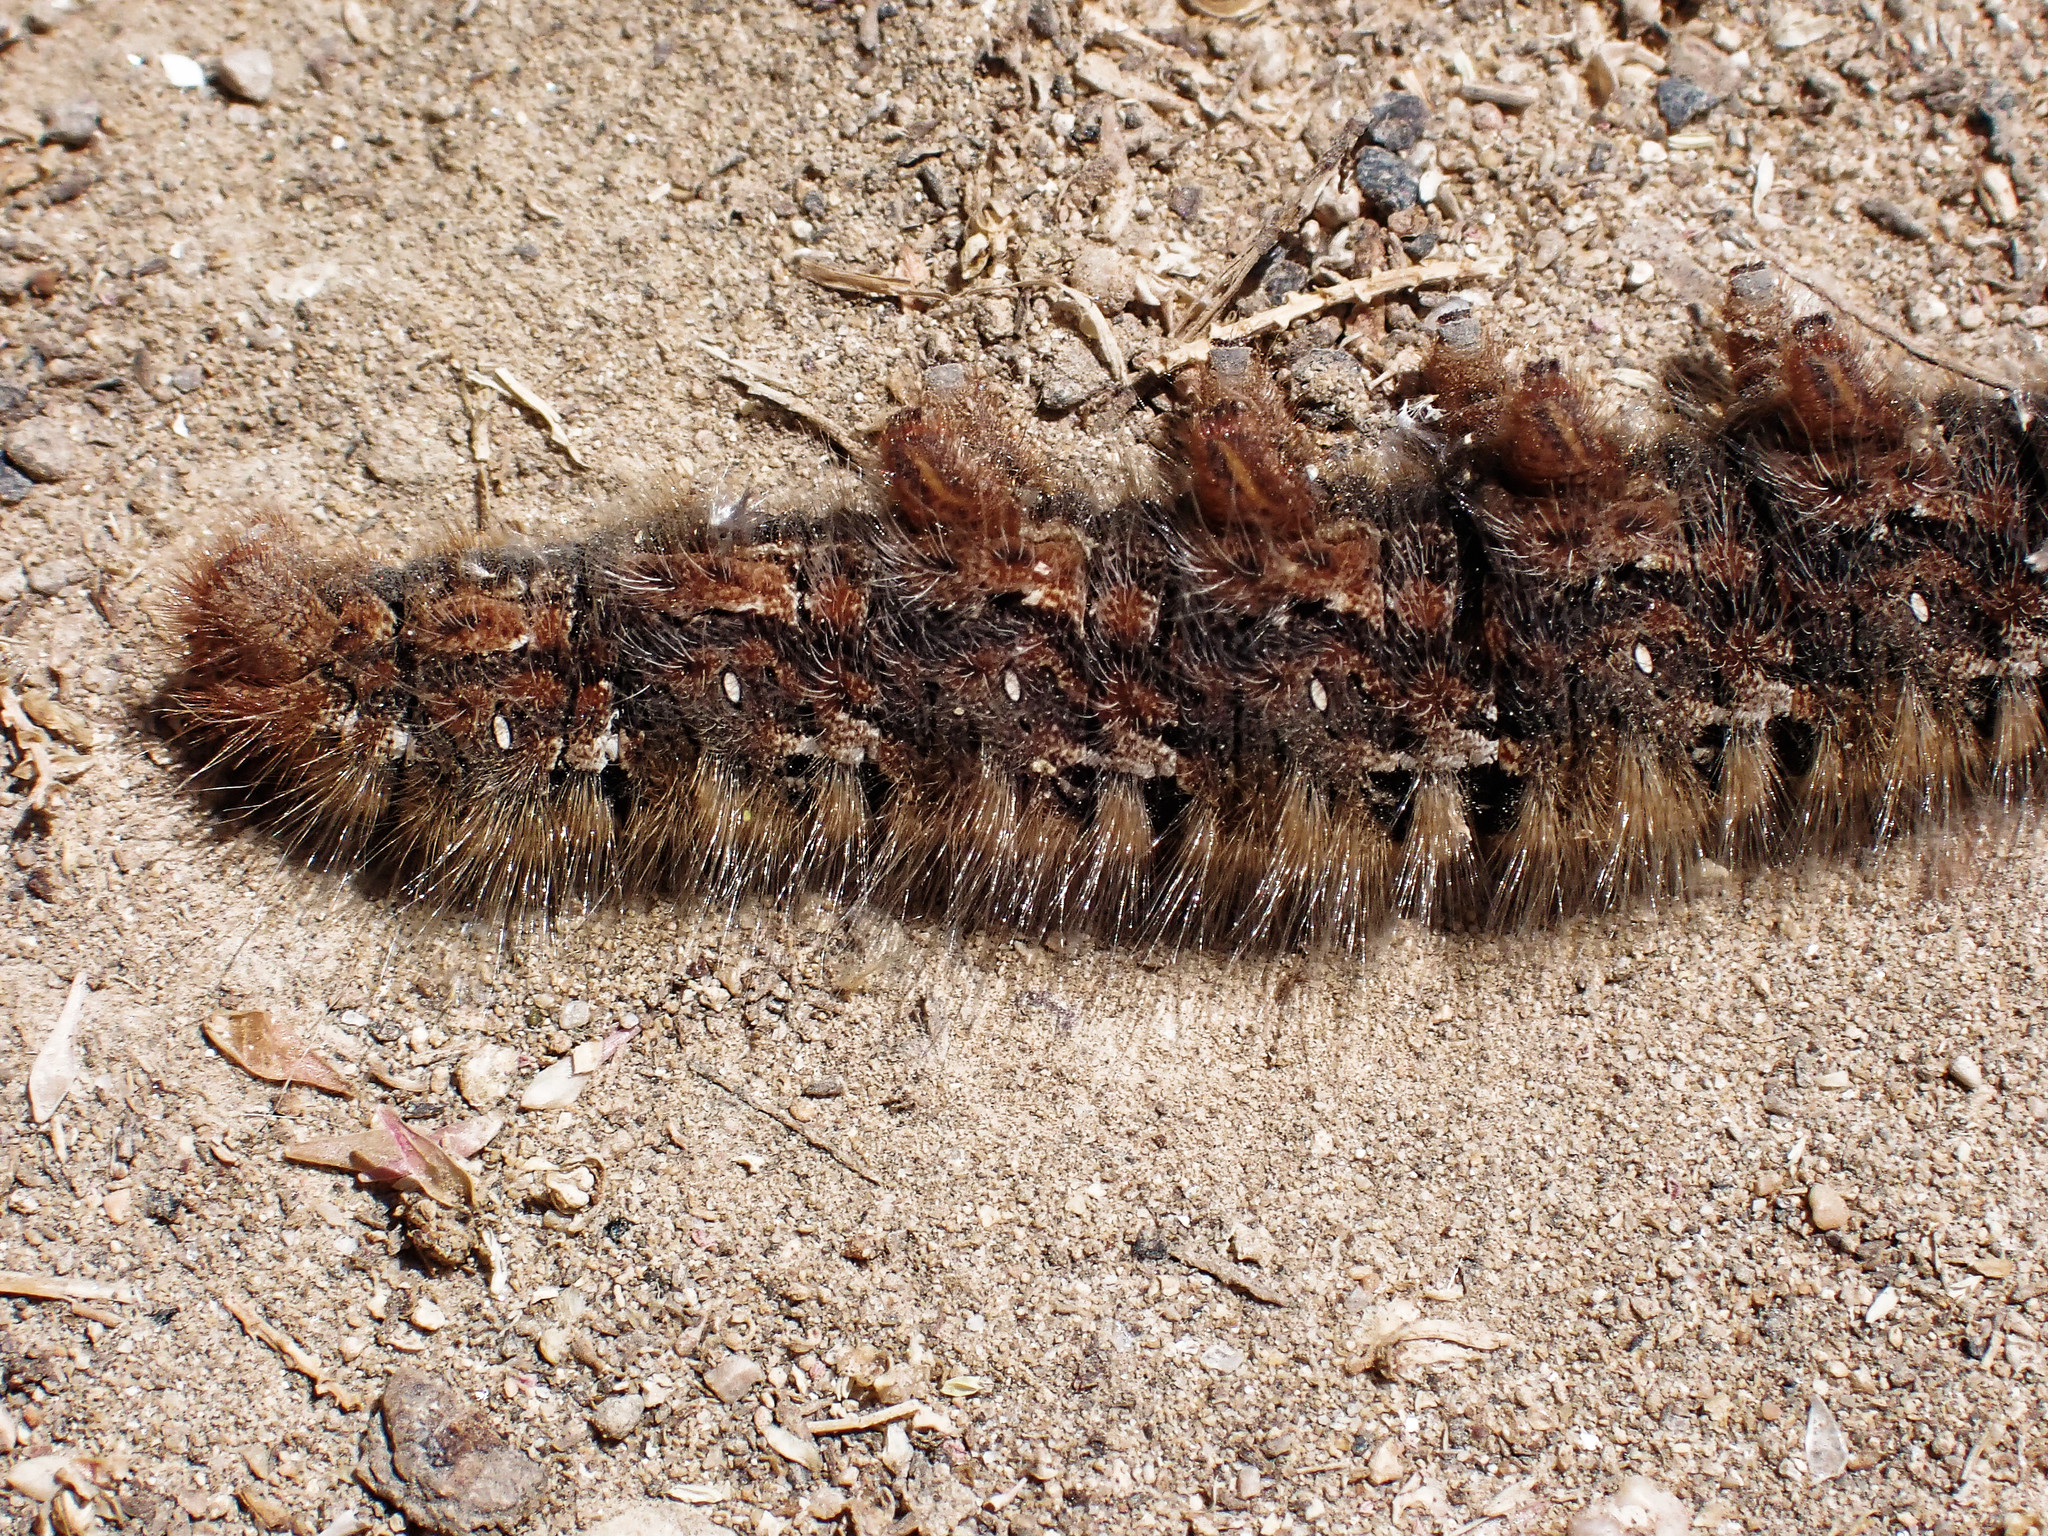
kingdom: Animalia
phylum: Arthropoda
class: Insecta
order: Lepidoptera
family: Lasiocampidae
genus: Lasiocampa
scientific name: Lasiocampa quercus
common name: Oak eggar
